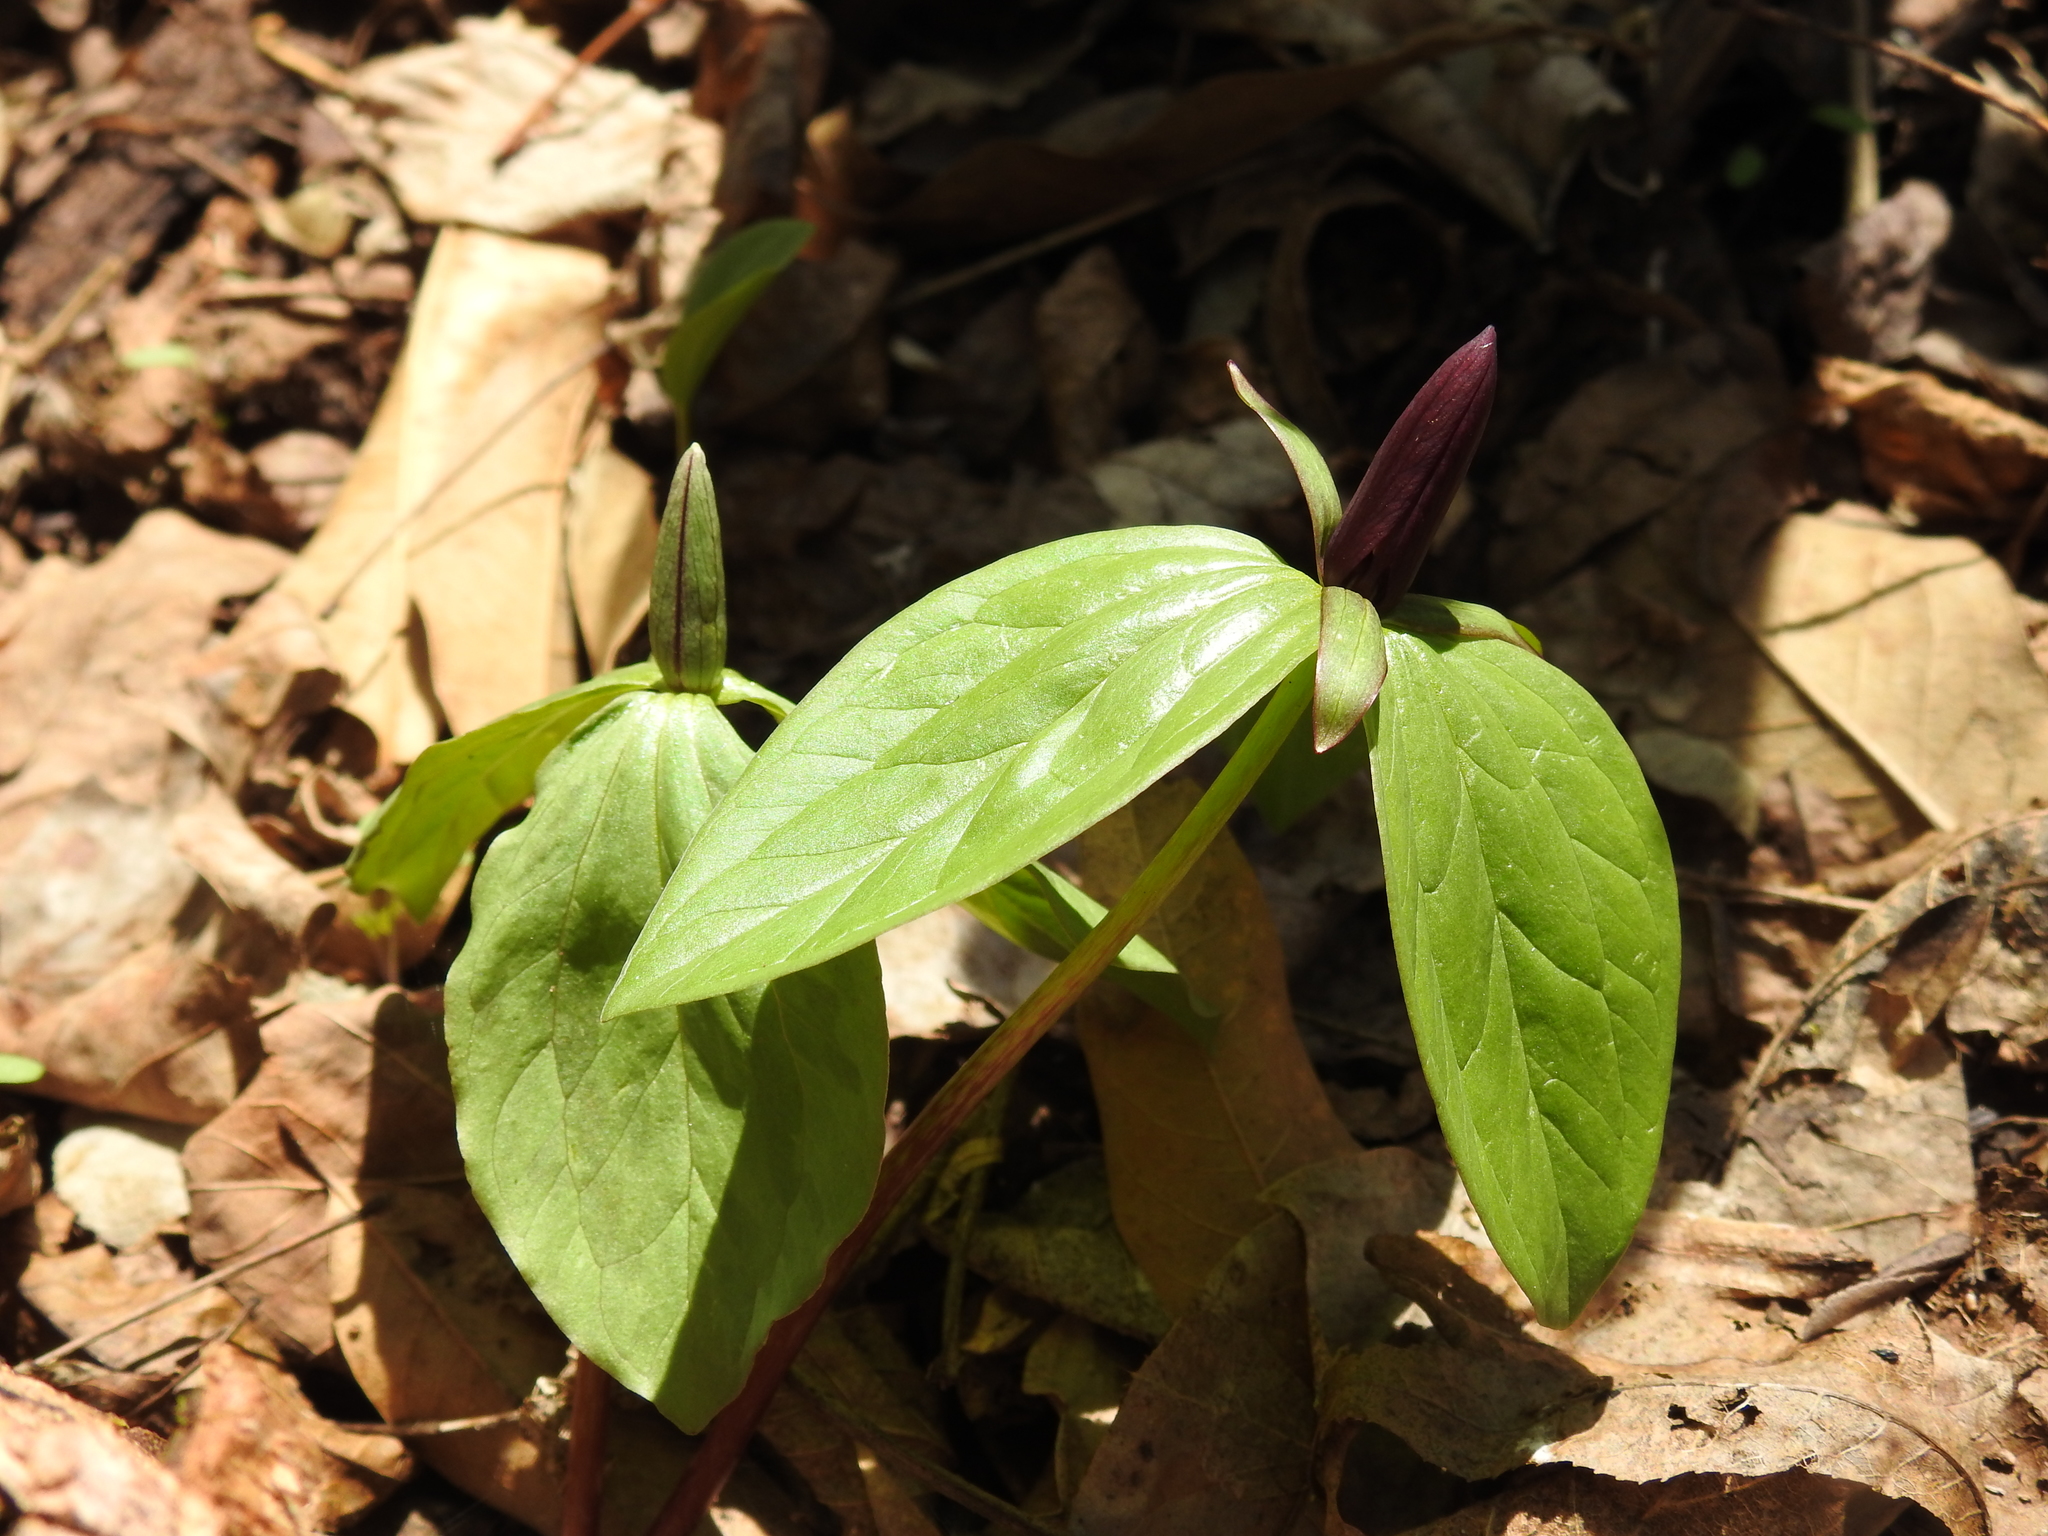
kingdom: Plantae
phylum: Tracheophyta
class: Liliopsida
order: Liliales
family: Melanthiaceae
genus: Trillium
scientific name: Trillium sessile
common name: Sessile trillium
